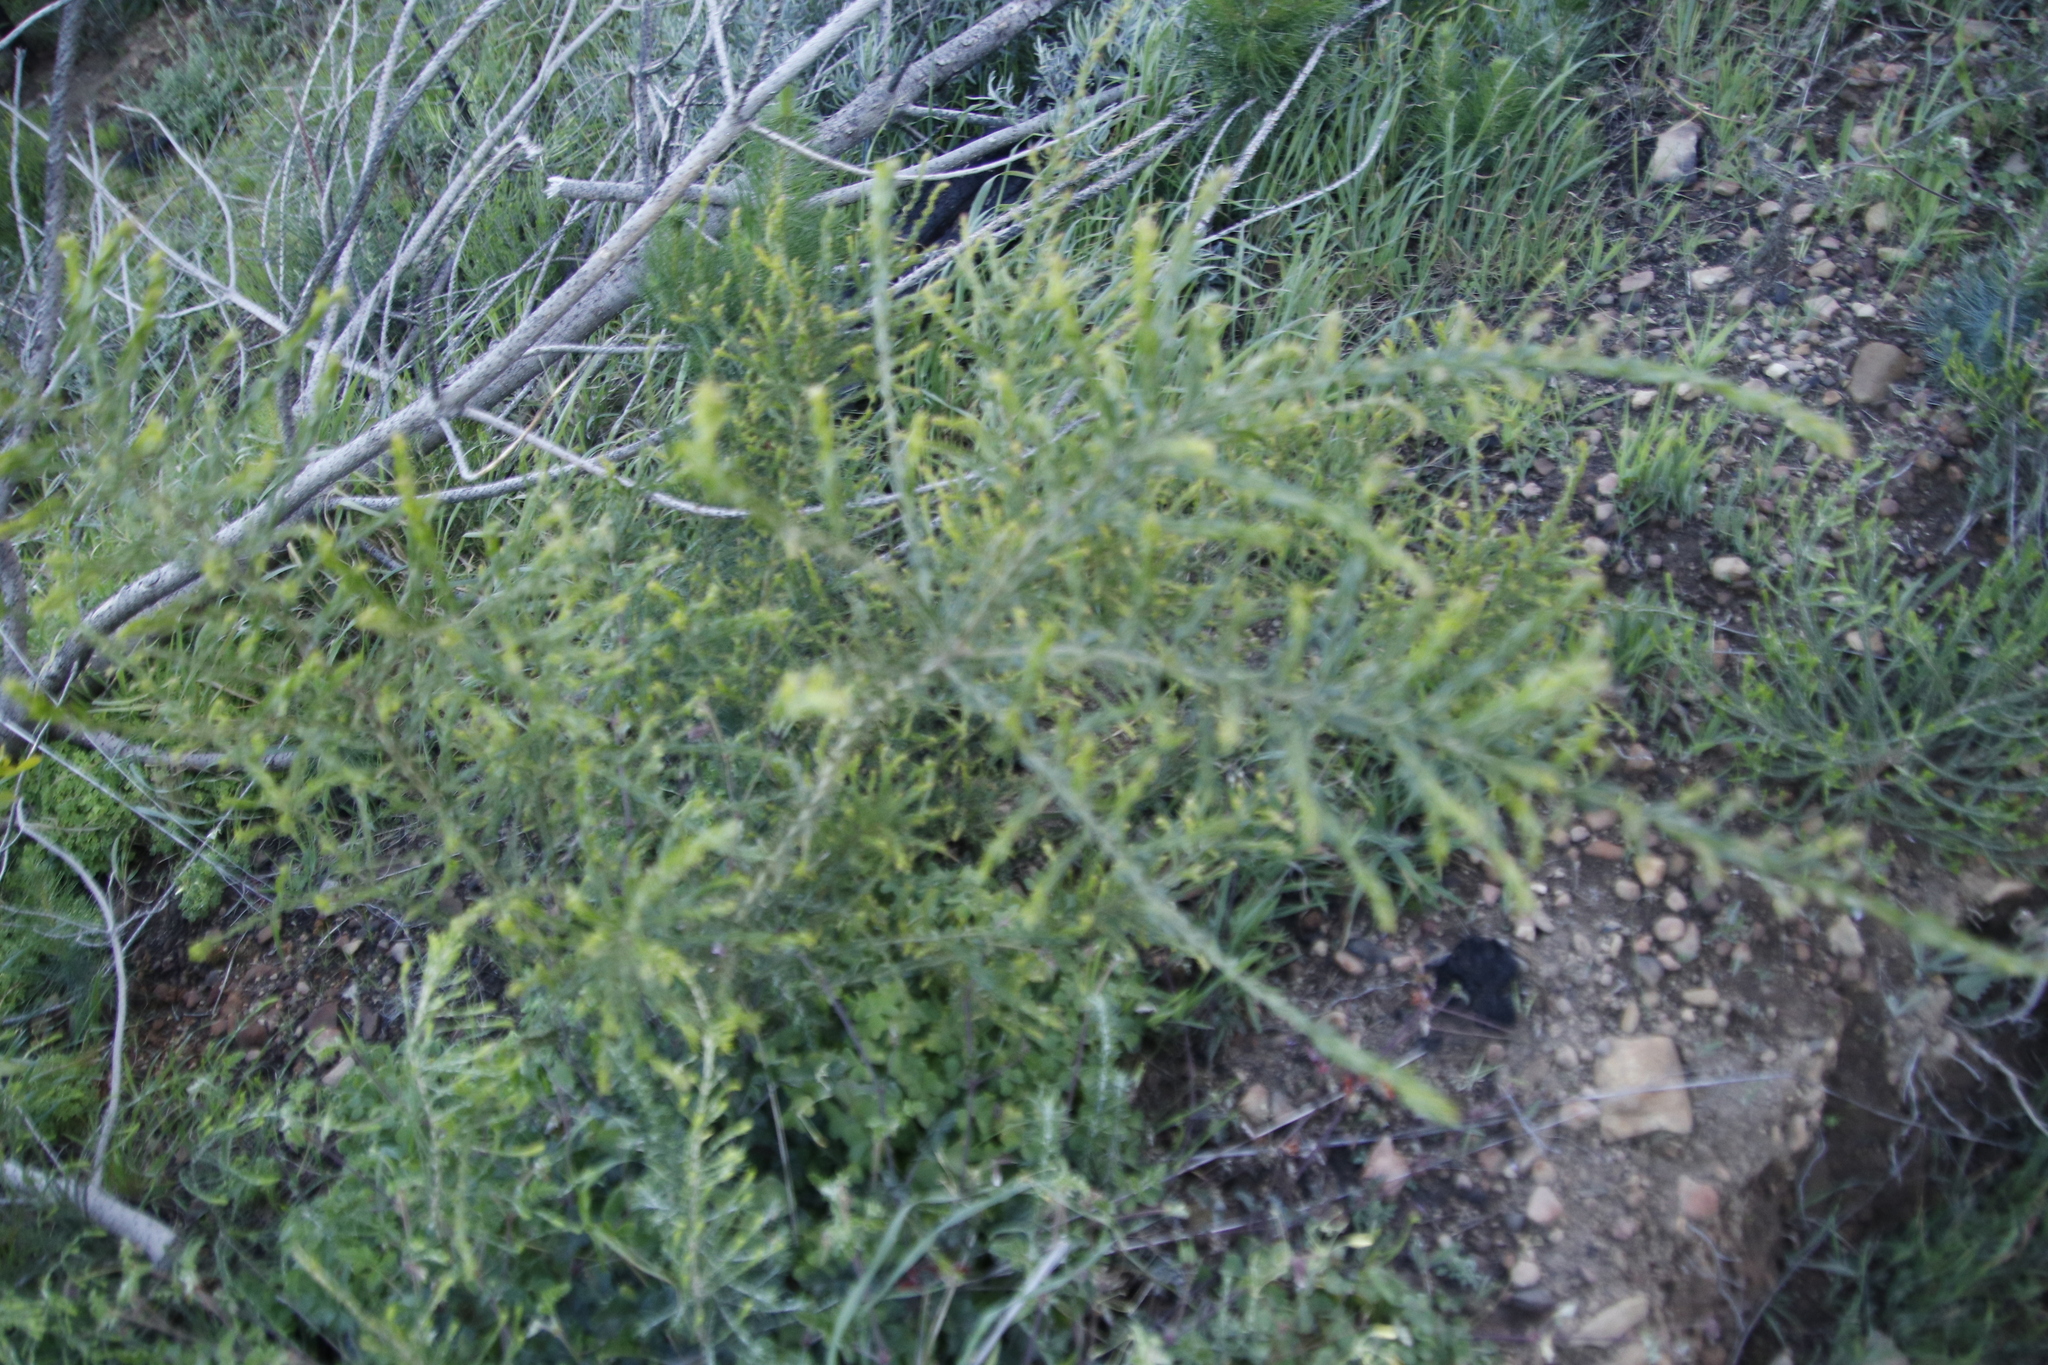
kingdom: Plantae
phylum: Tracheophyta
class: Magnoliopsida
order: Fabales
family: Fabaceae
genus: Acacia
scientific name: Acacia paradoxa
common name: Paradox acacia
